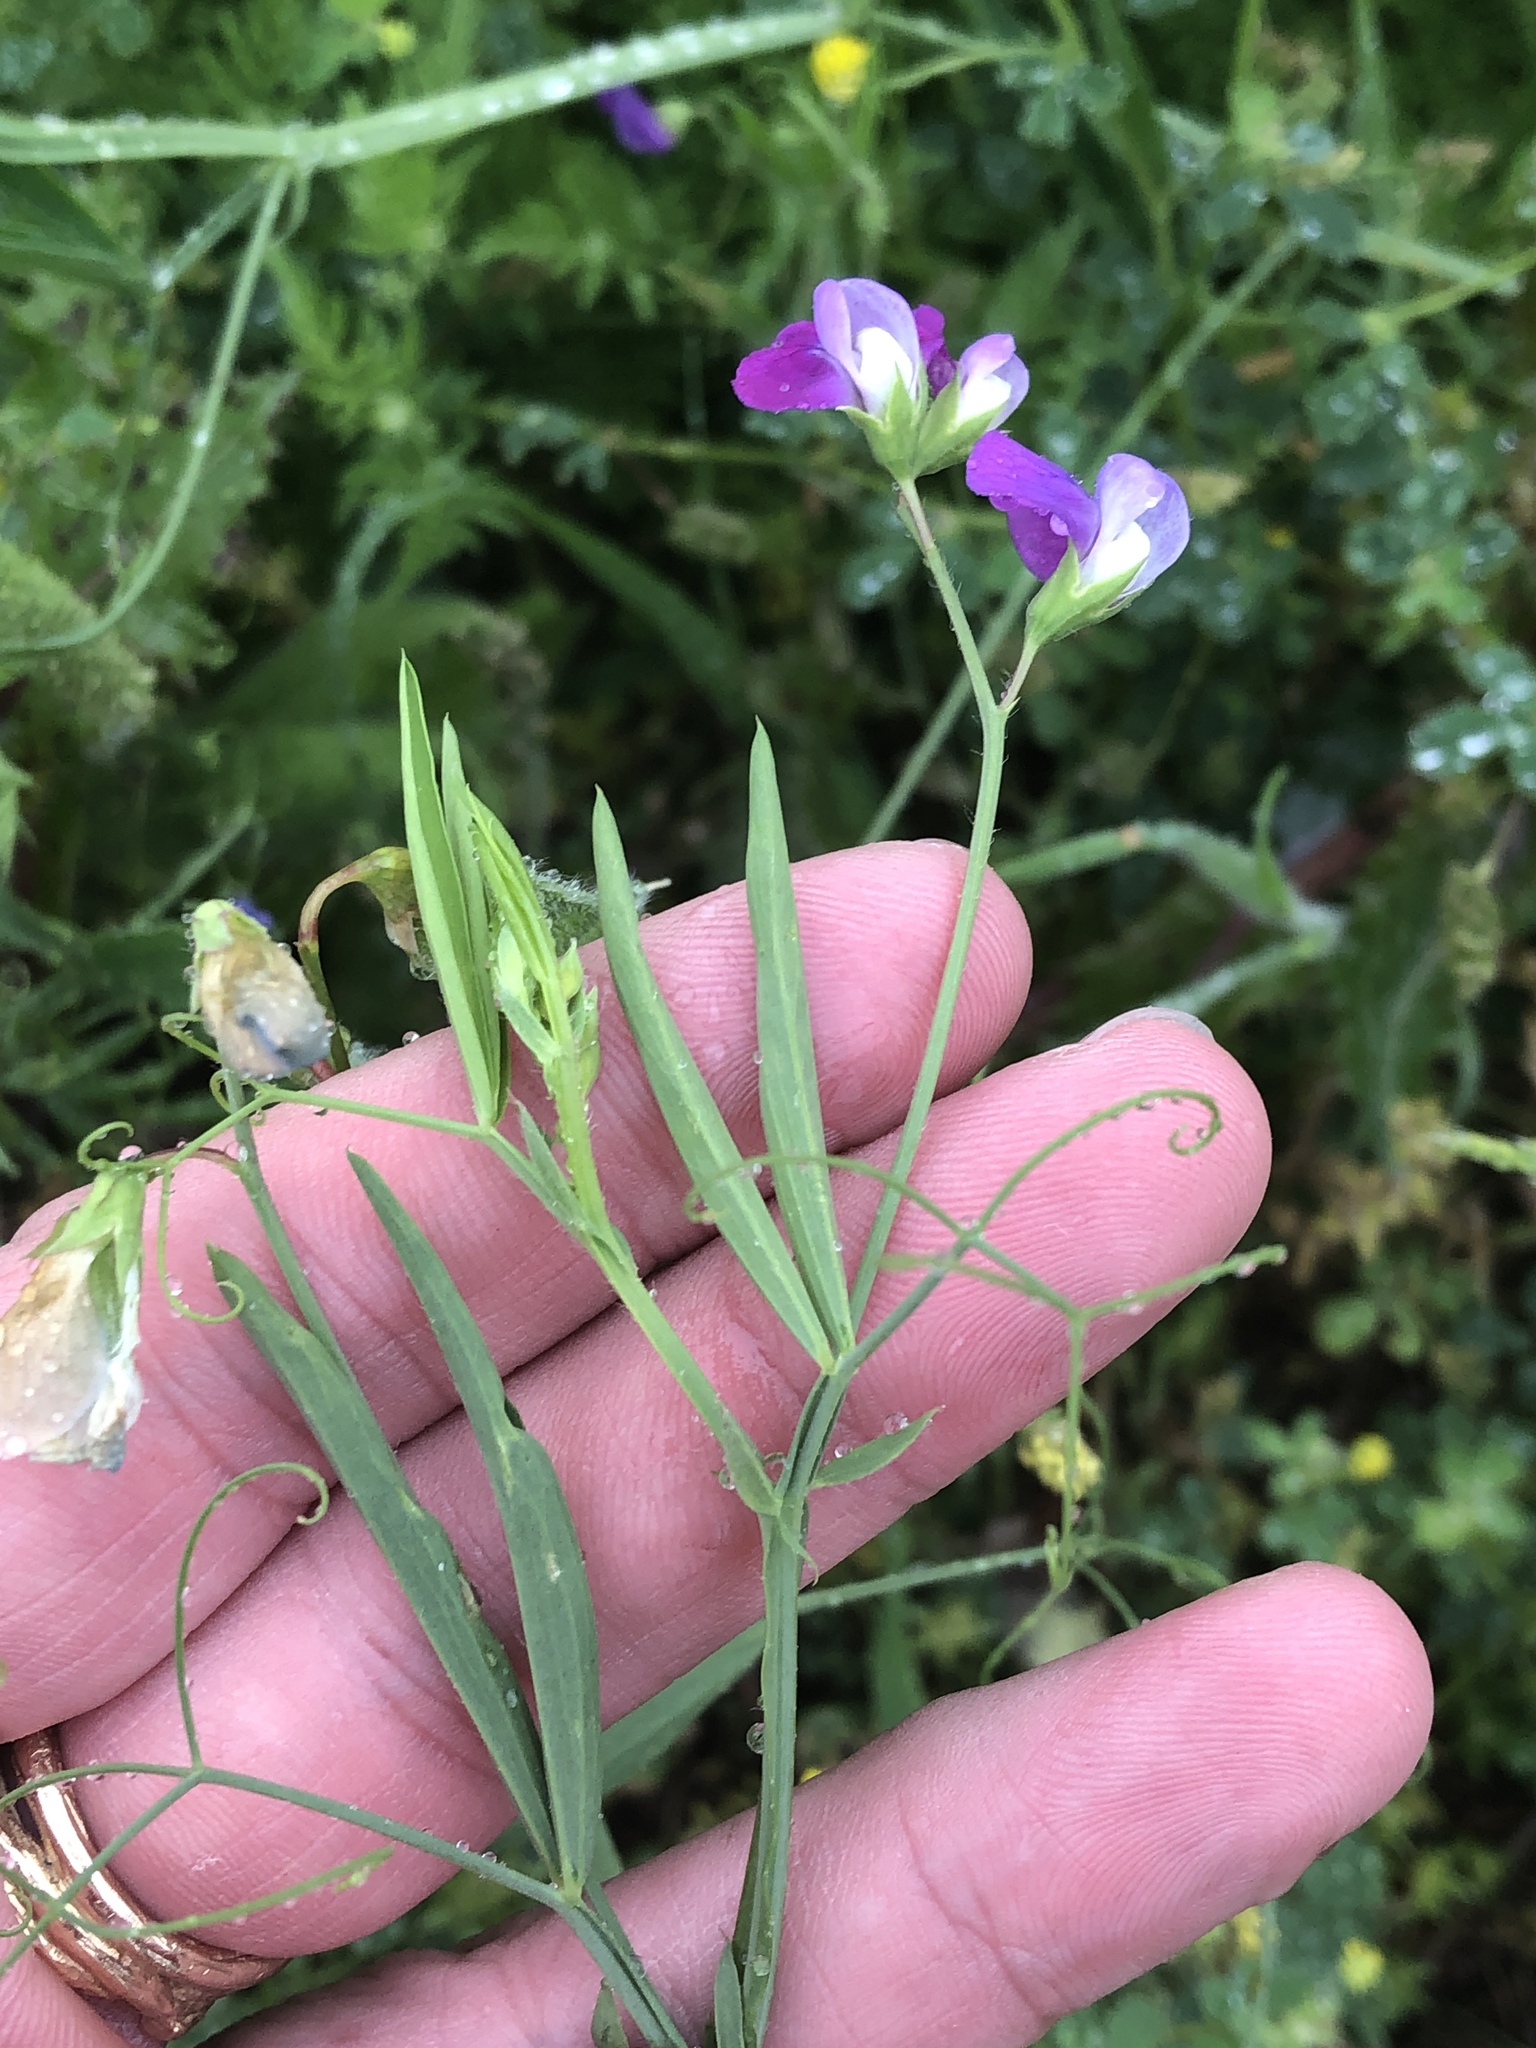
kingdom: Plantae
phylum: Tracheophyta
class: Magnoliopsida
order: Fabales
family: Fabaceae
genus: Lathyrus
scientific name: Lathyrus hirsutus
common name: Hairy vetchling
